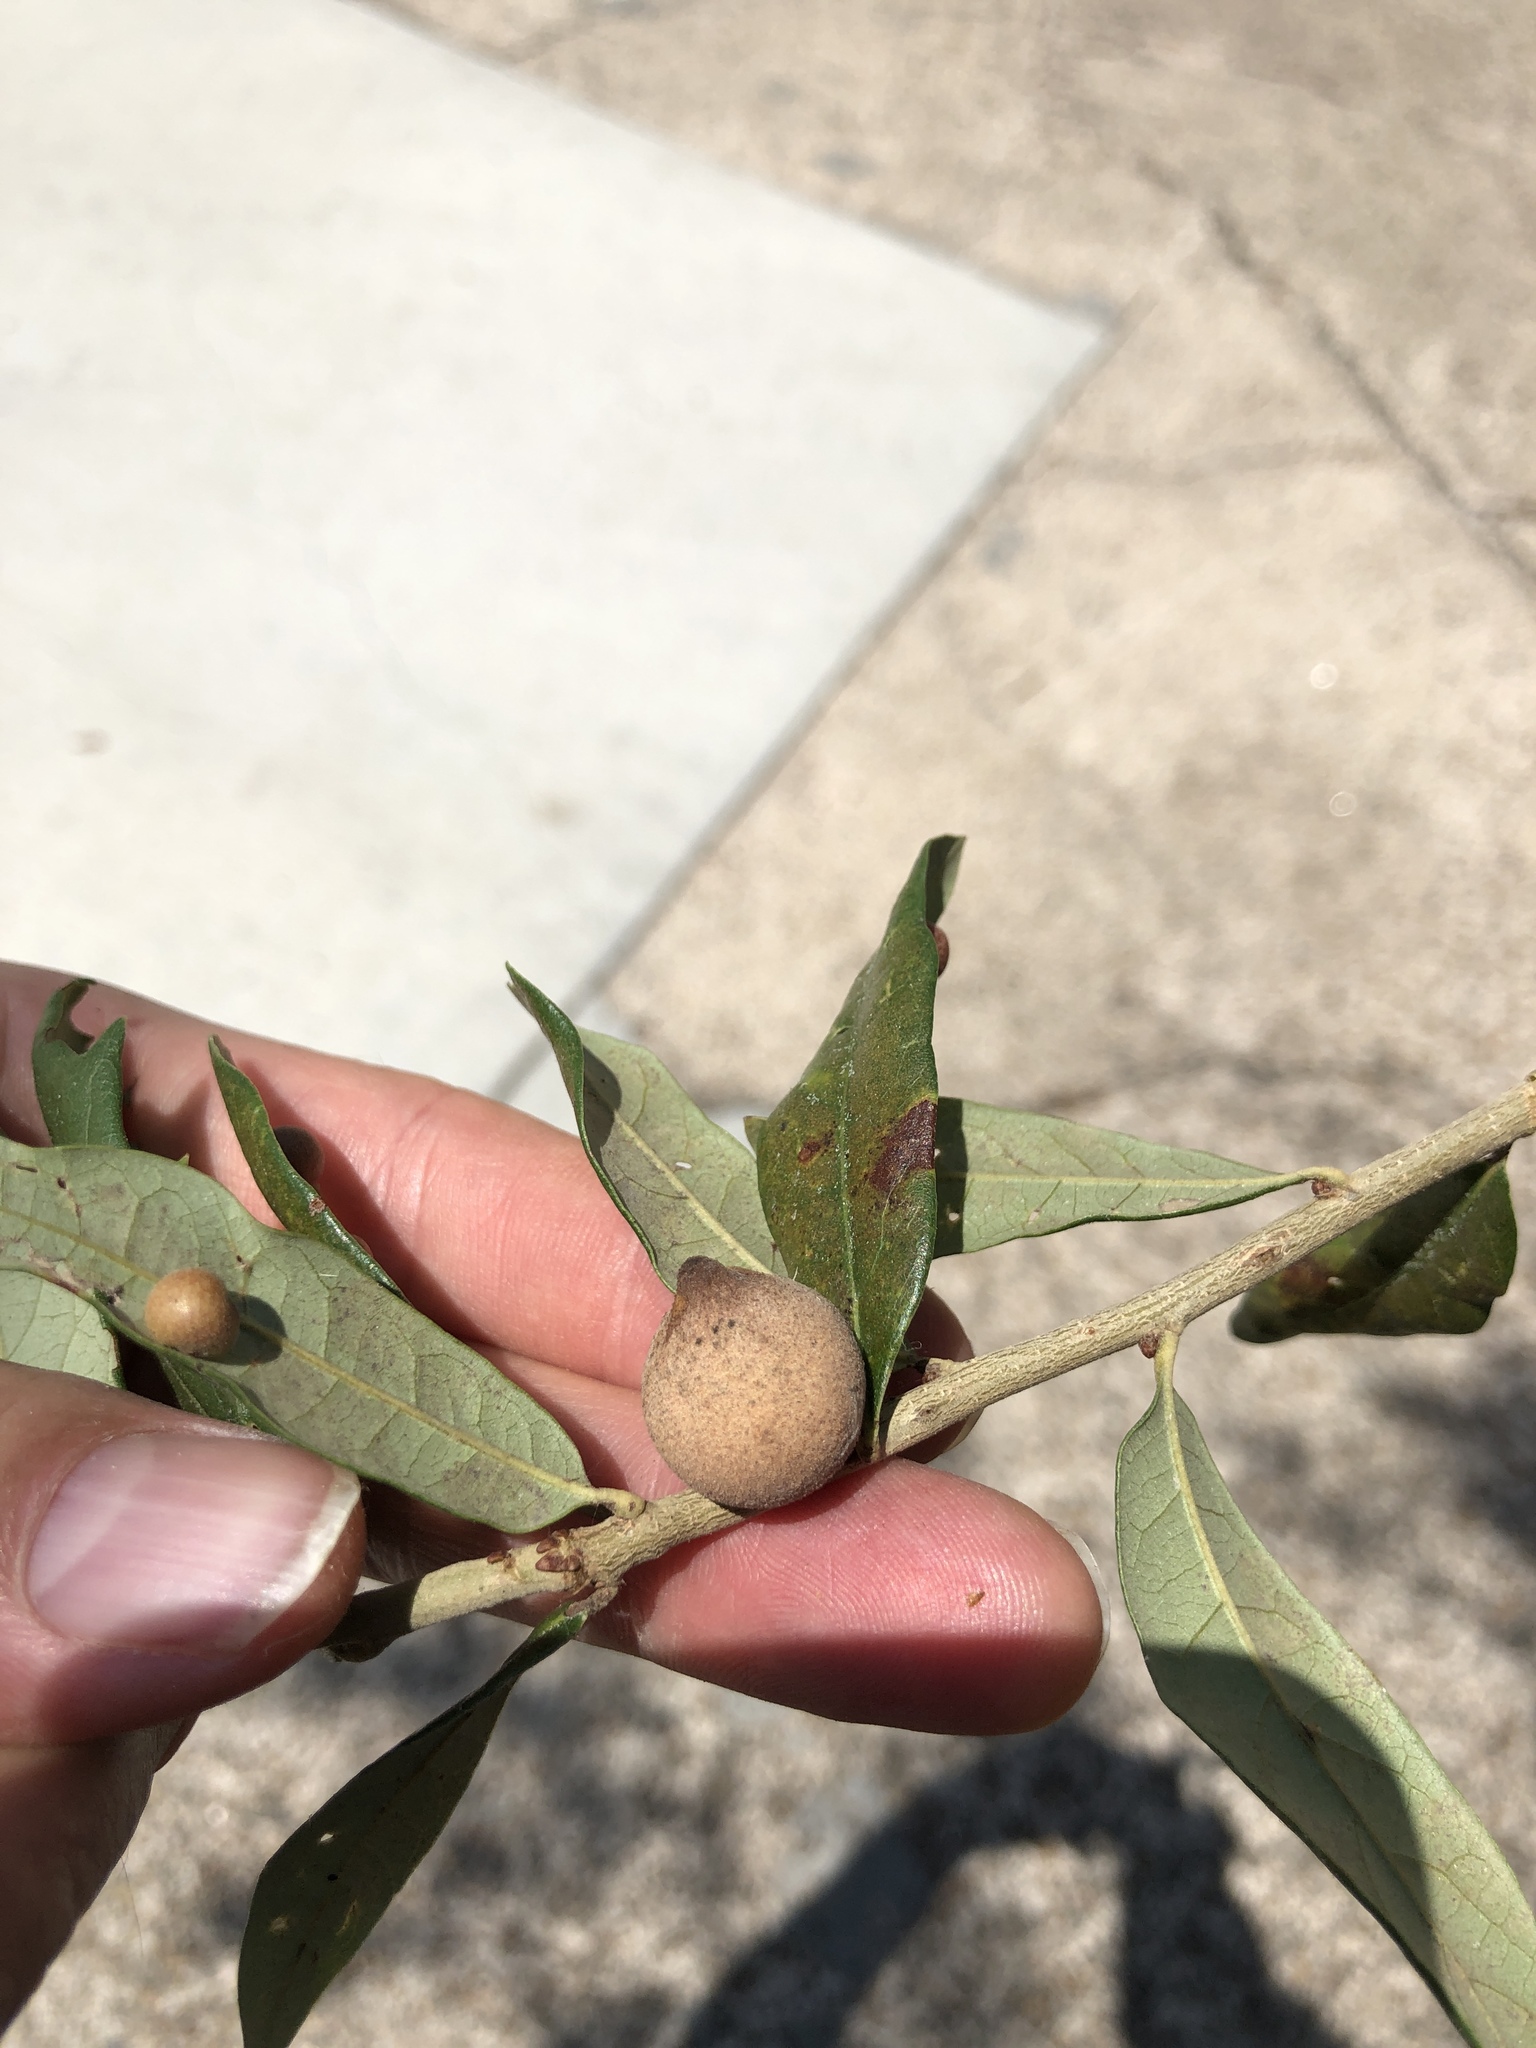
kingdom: Animalia
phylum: Arthropoda
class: Insecta
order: Hymenoptera
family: Cynipidae
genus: Disholcaspis
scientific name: Disholcaspis
